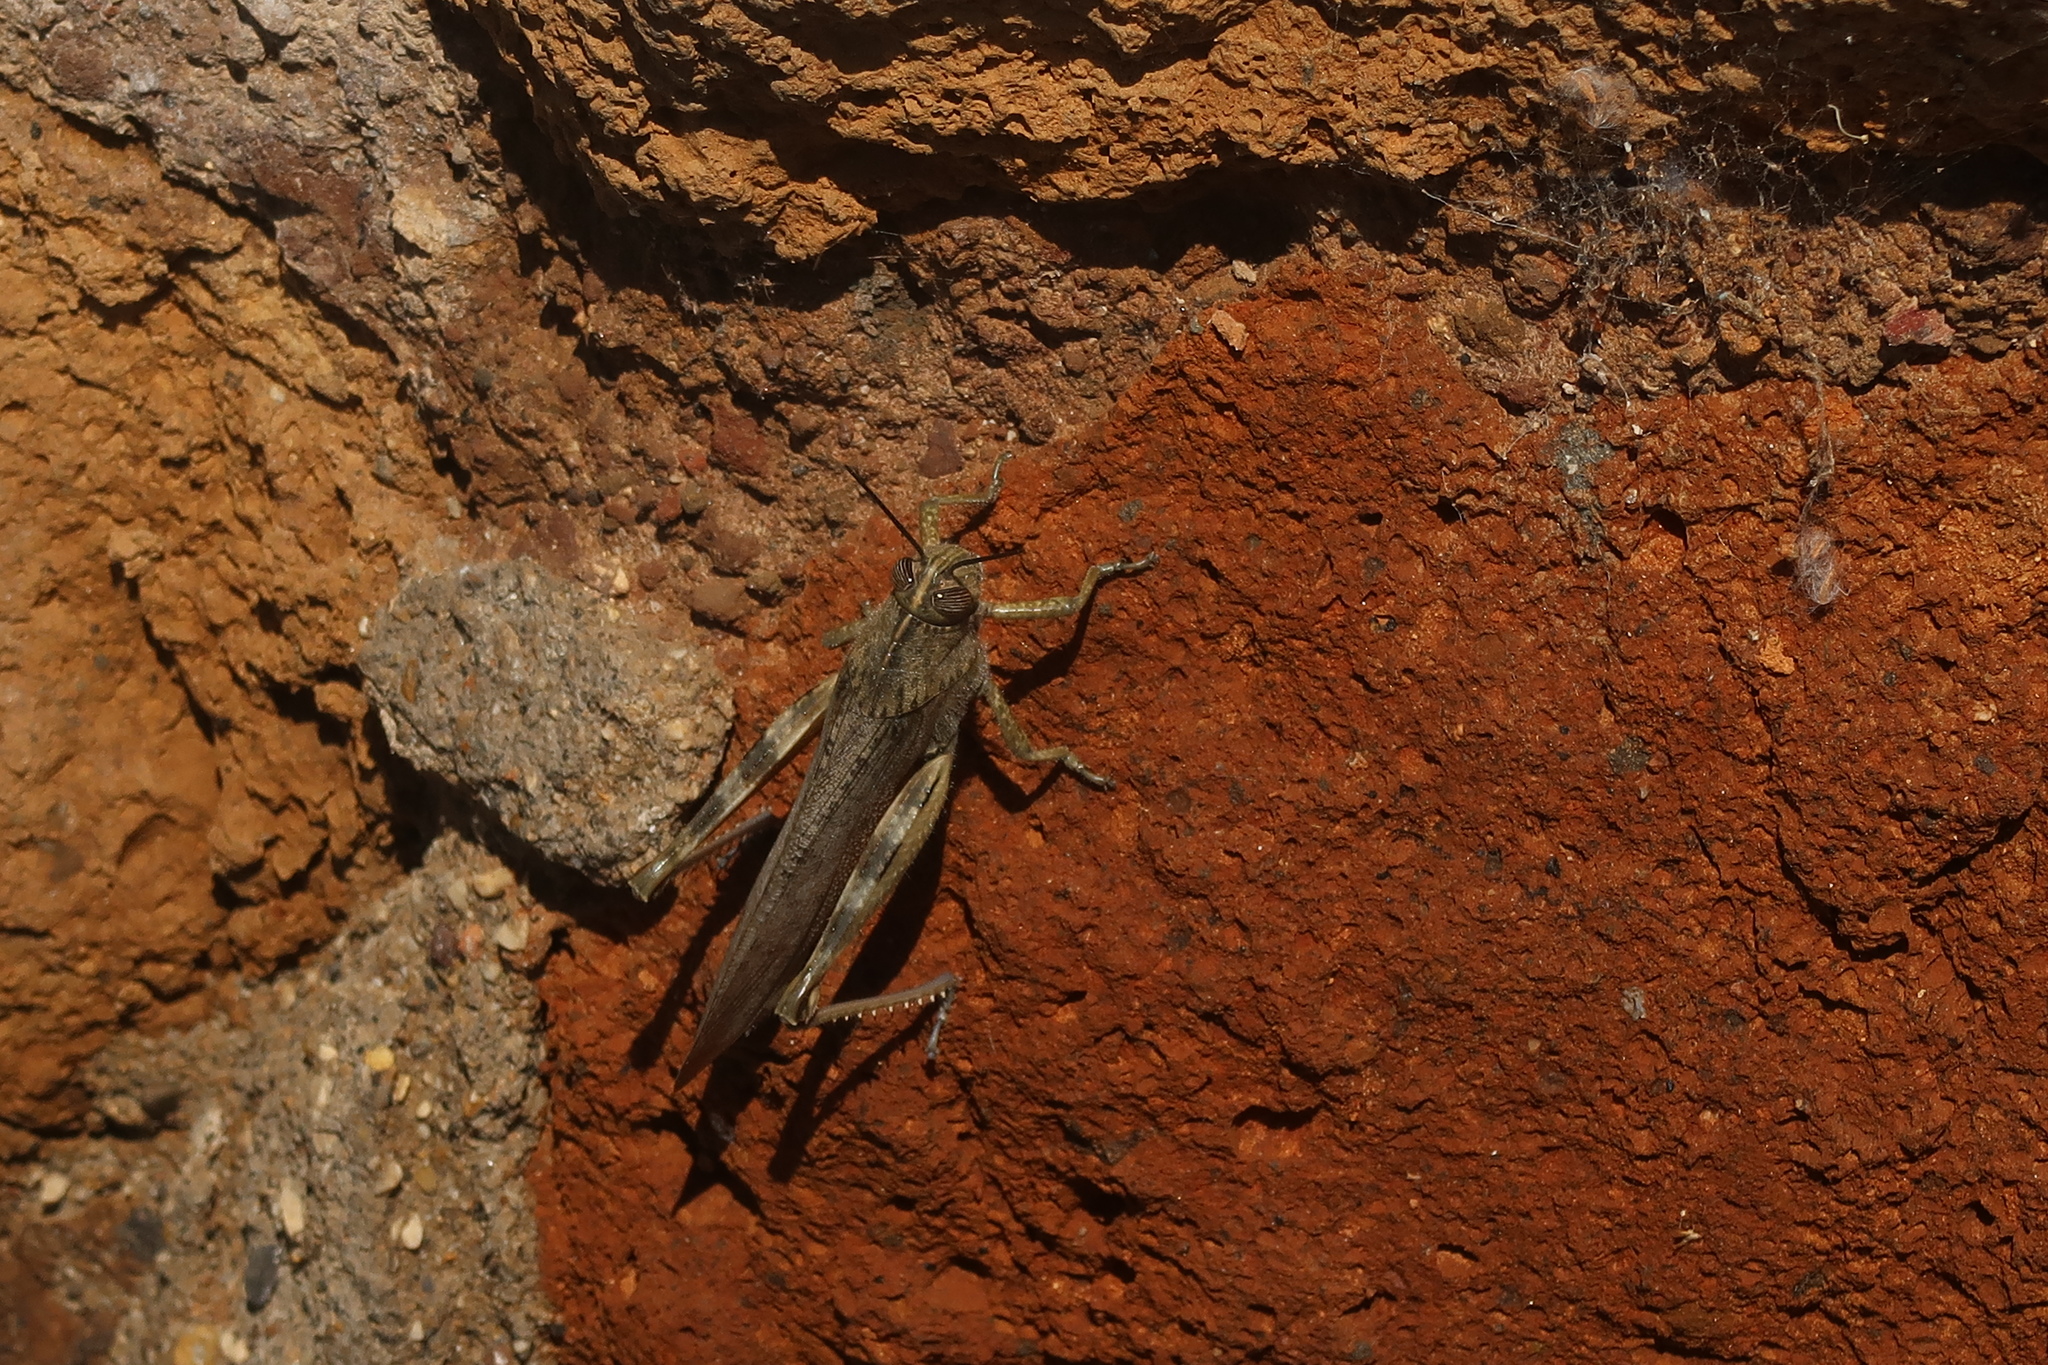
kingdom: Animalia
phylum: Arthropoda
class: Insecta
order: Orthoptera
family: Acrididae
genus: Anacridium
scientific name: Anacridium aegyptium
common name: Egyptian grasshopper
